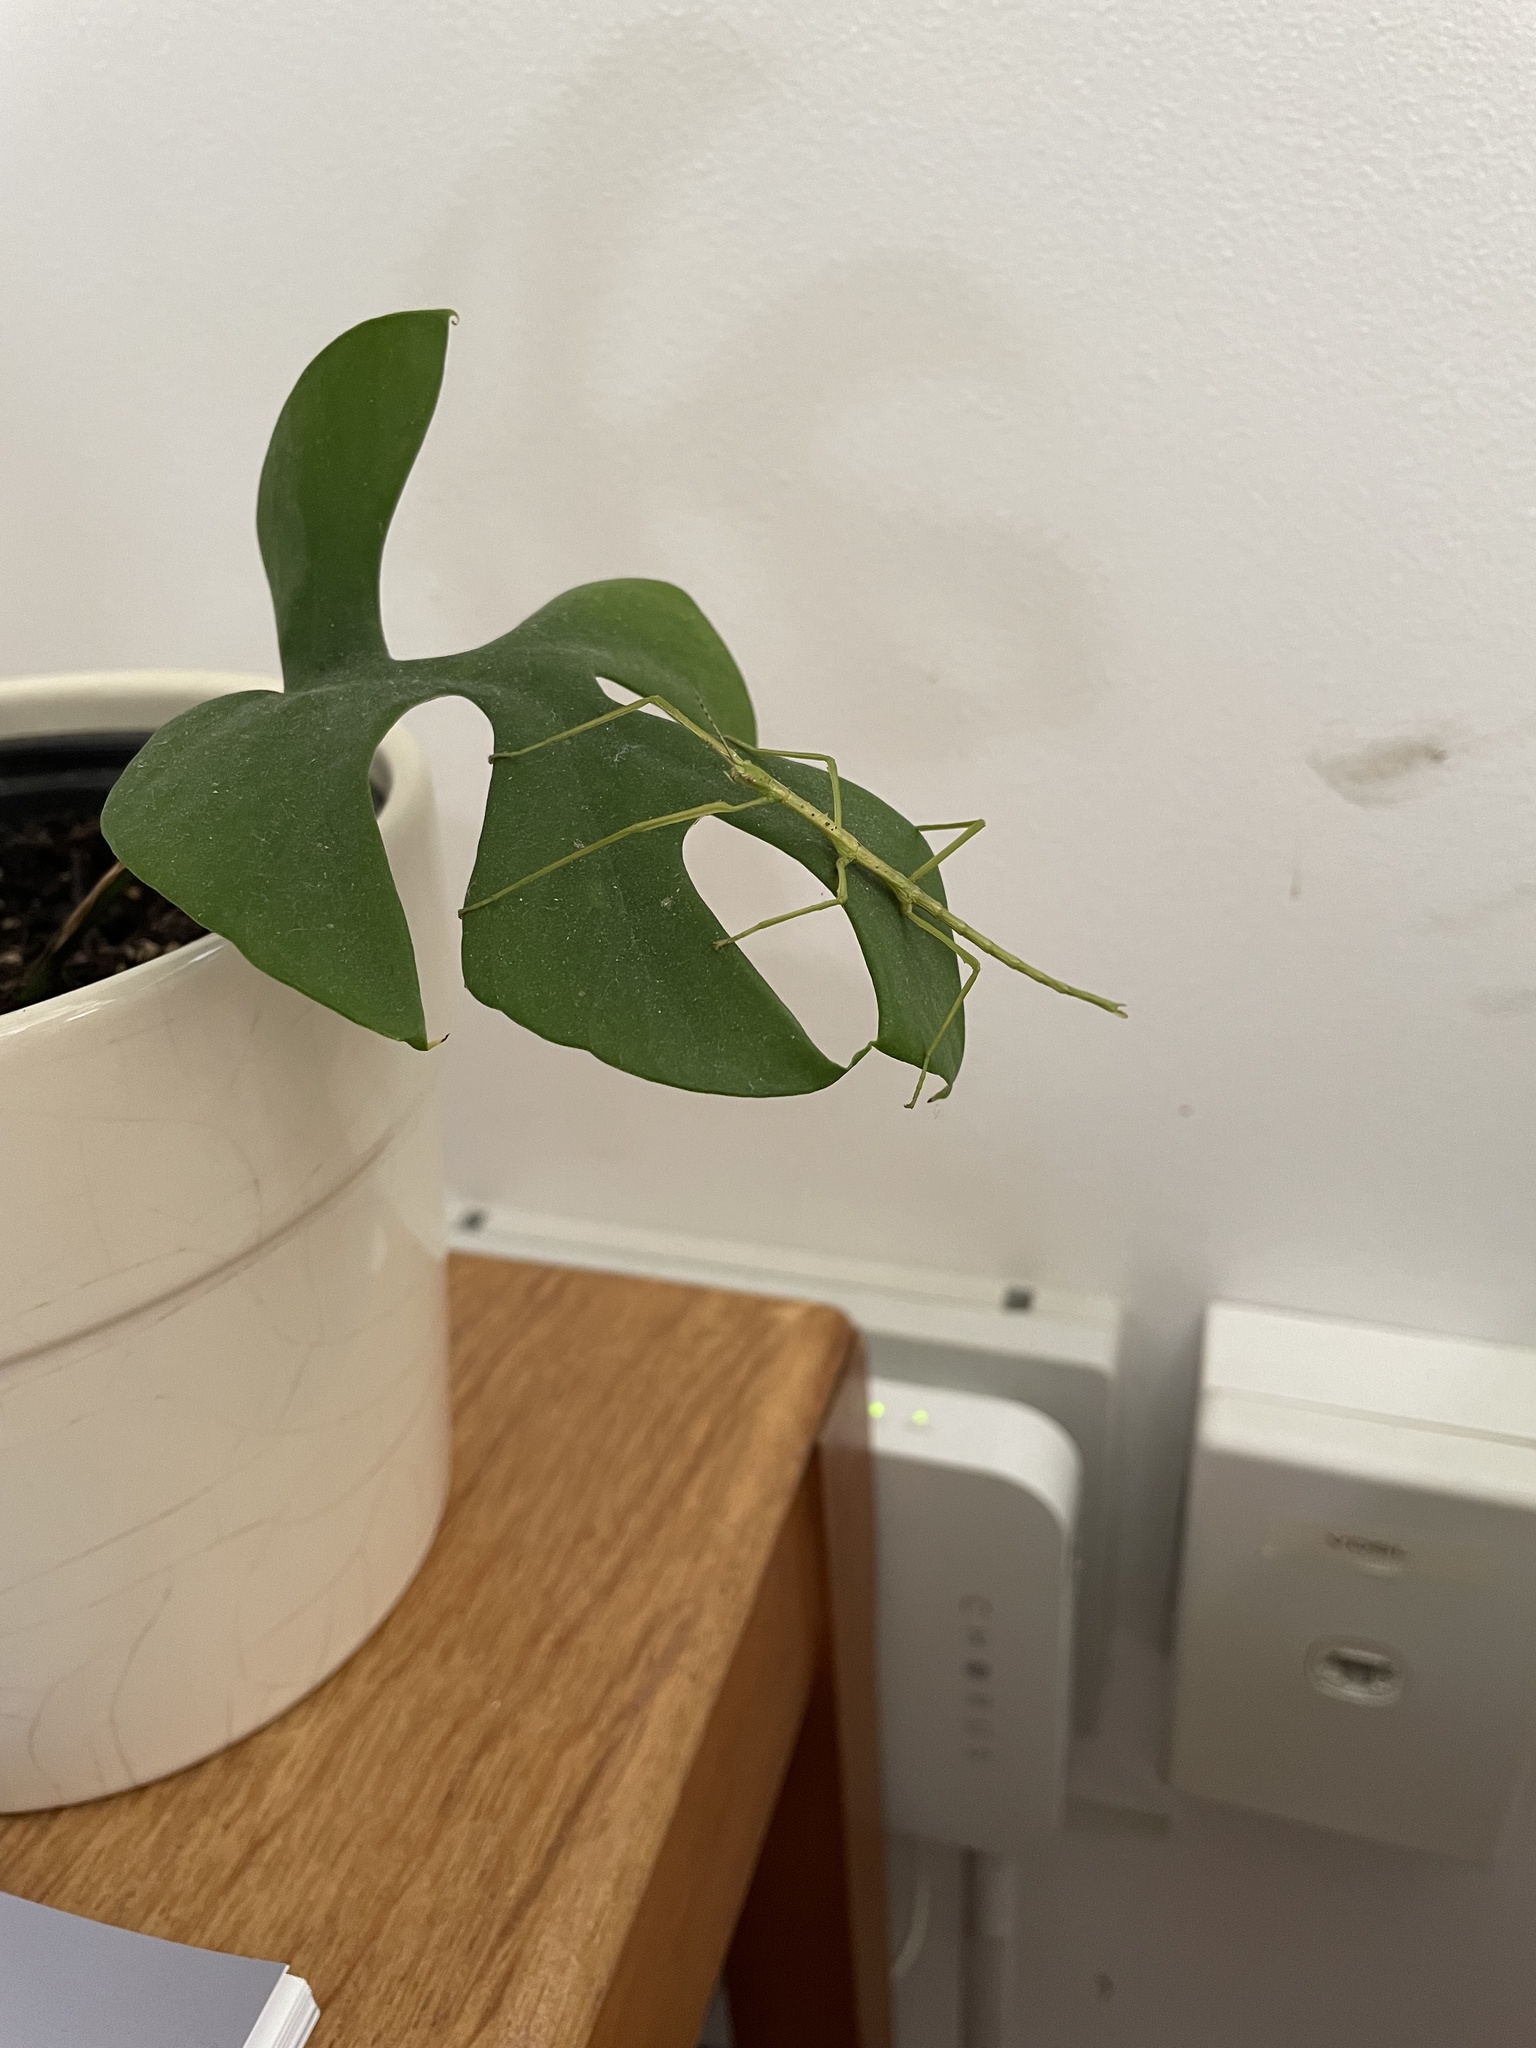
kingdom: Animalia
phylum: Arthropoda
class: Insecta
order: Phasmida
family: Phasmatidae
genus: Acanthoxyla
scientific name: Acanthoxyla prasina
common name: Black-spined stick insect
